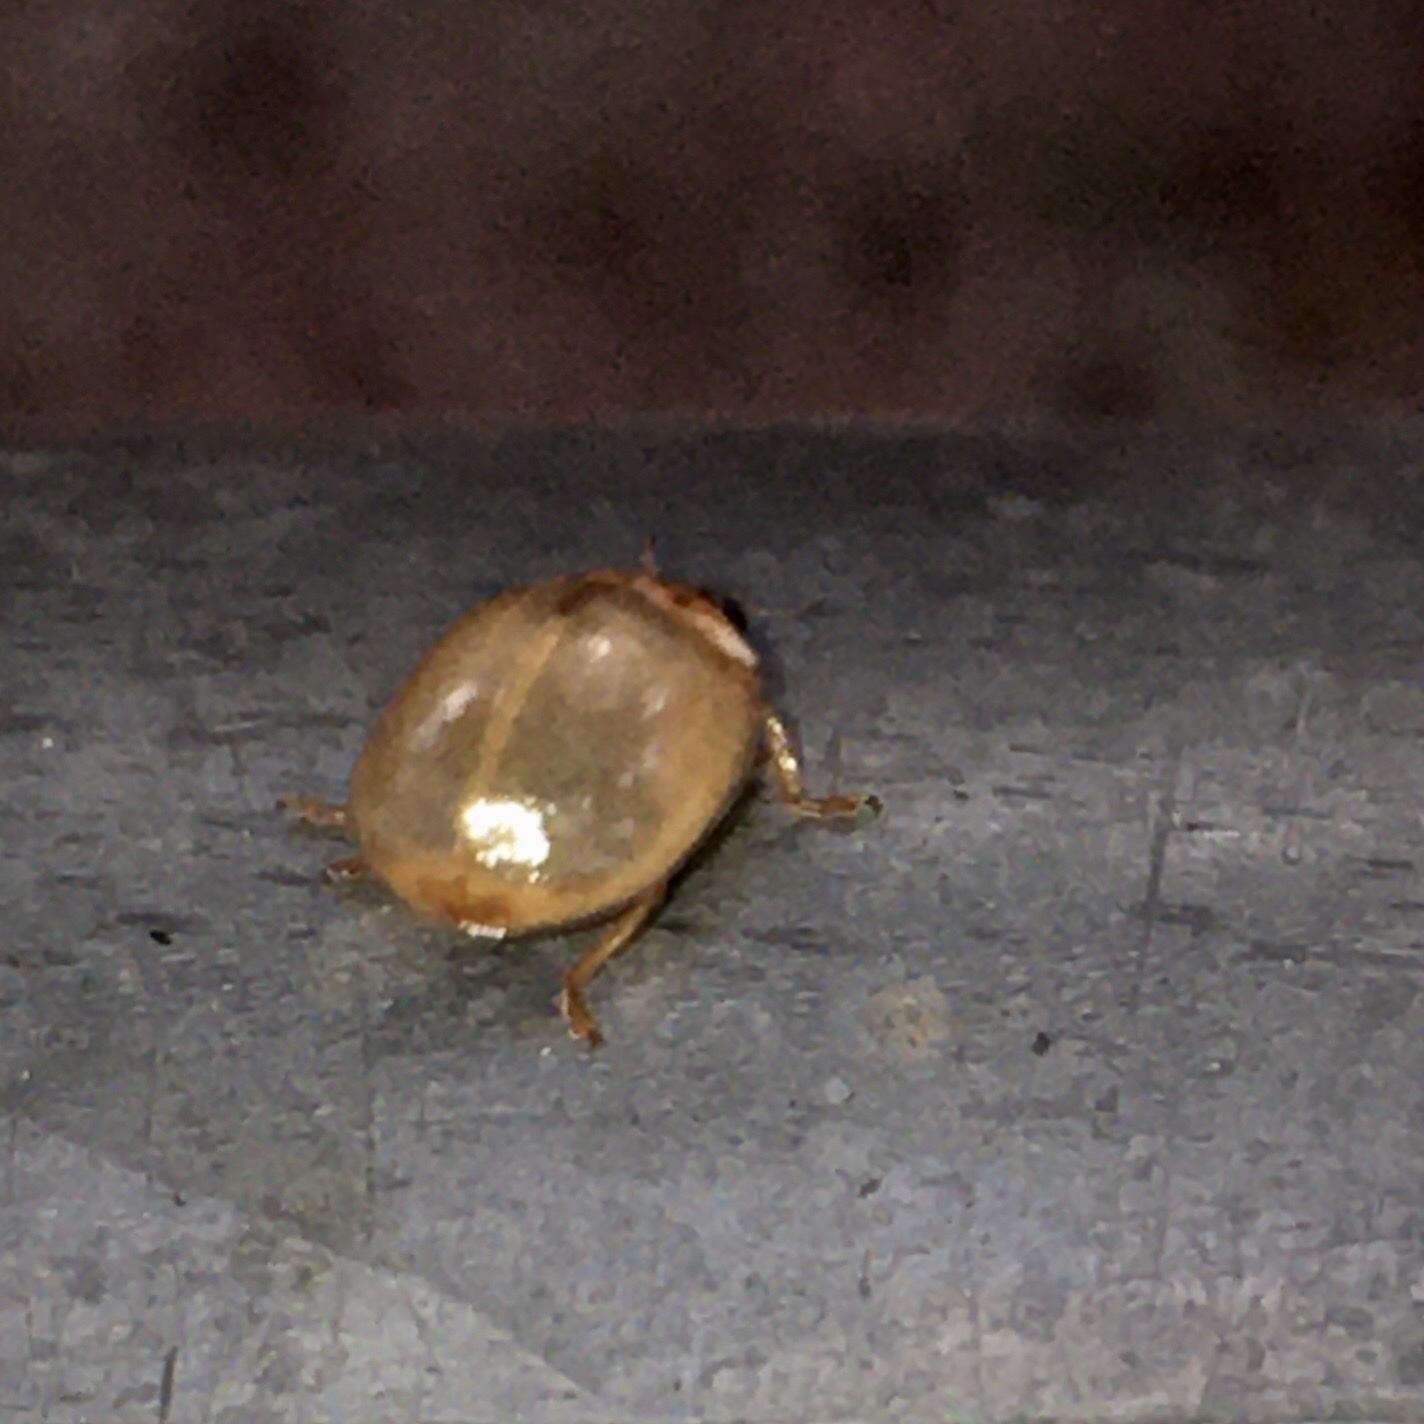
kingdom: Animalia
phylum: Arthropoda
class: Insecta
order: Coleoptera
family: Coccinellidae
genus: Adalia
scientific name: Adalia decempunctata
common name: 10-spot ladybird
